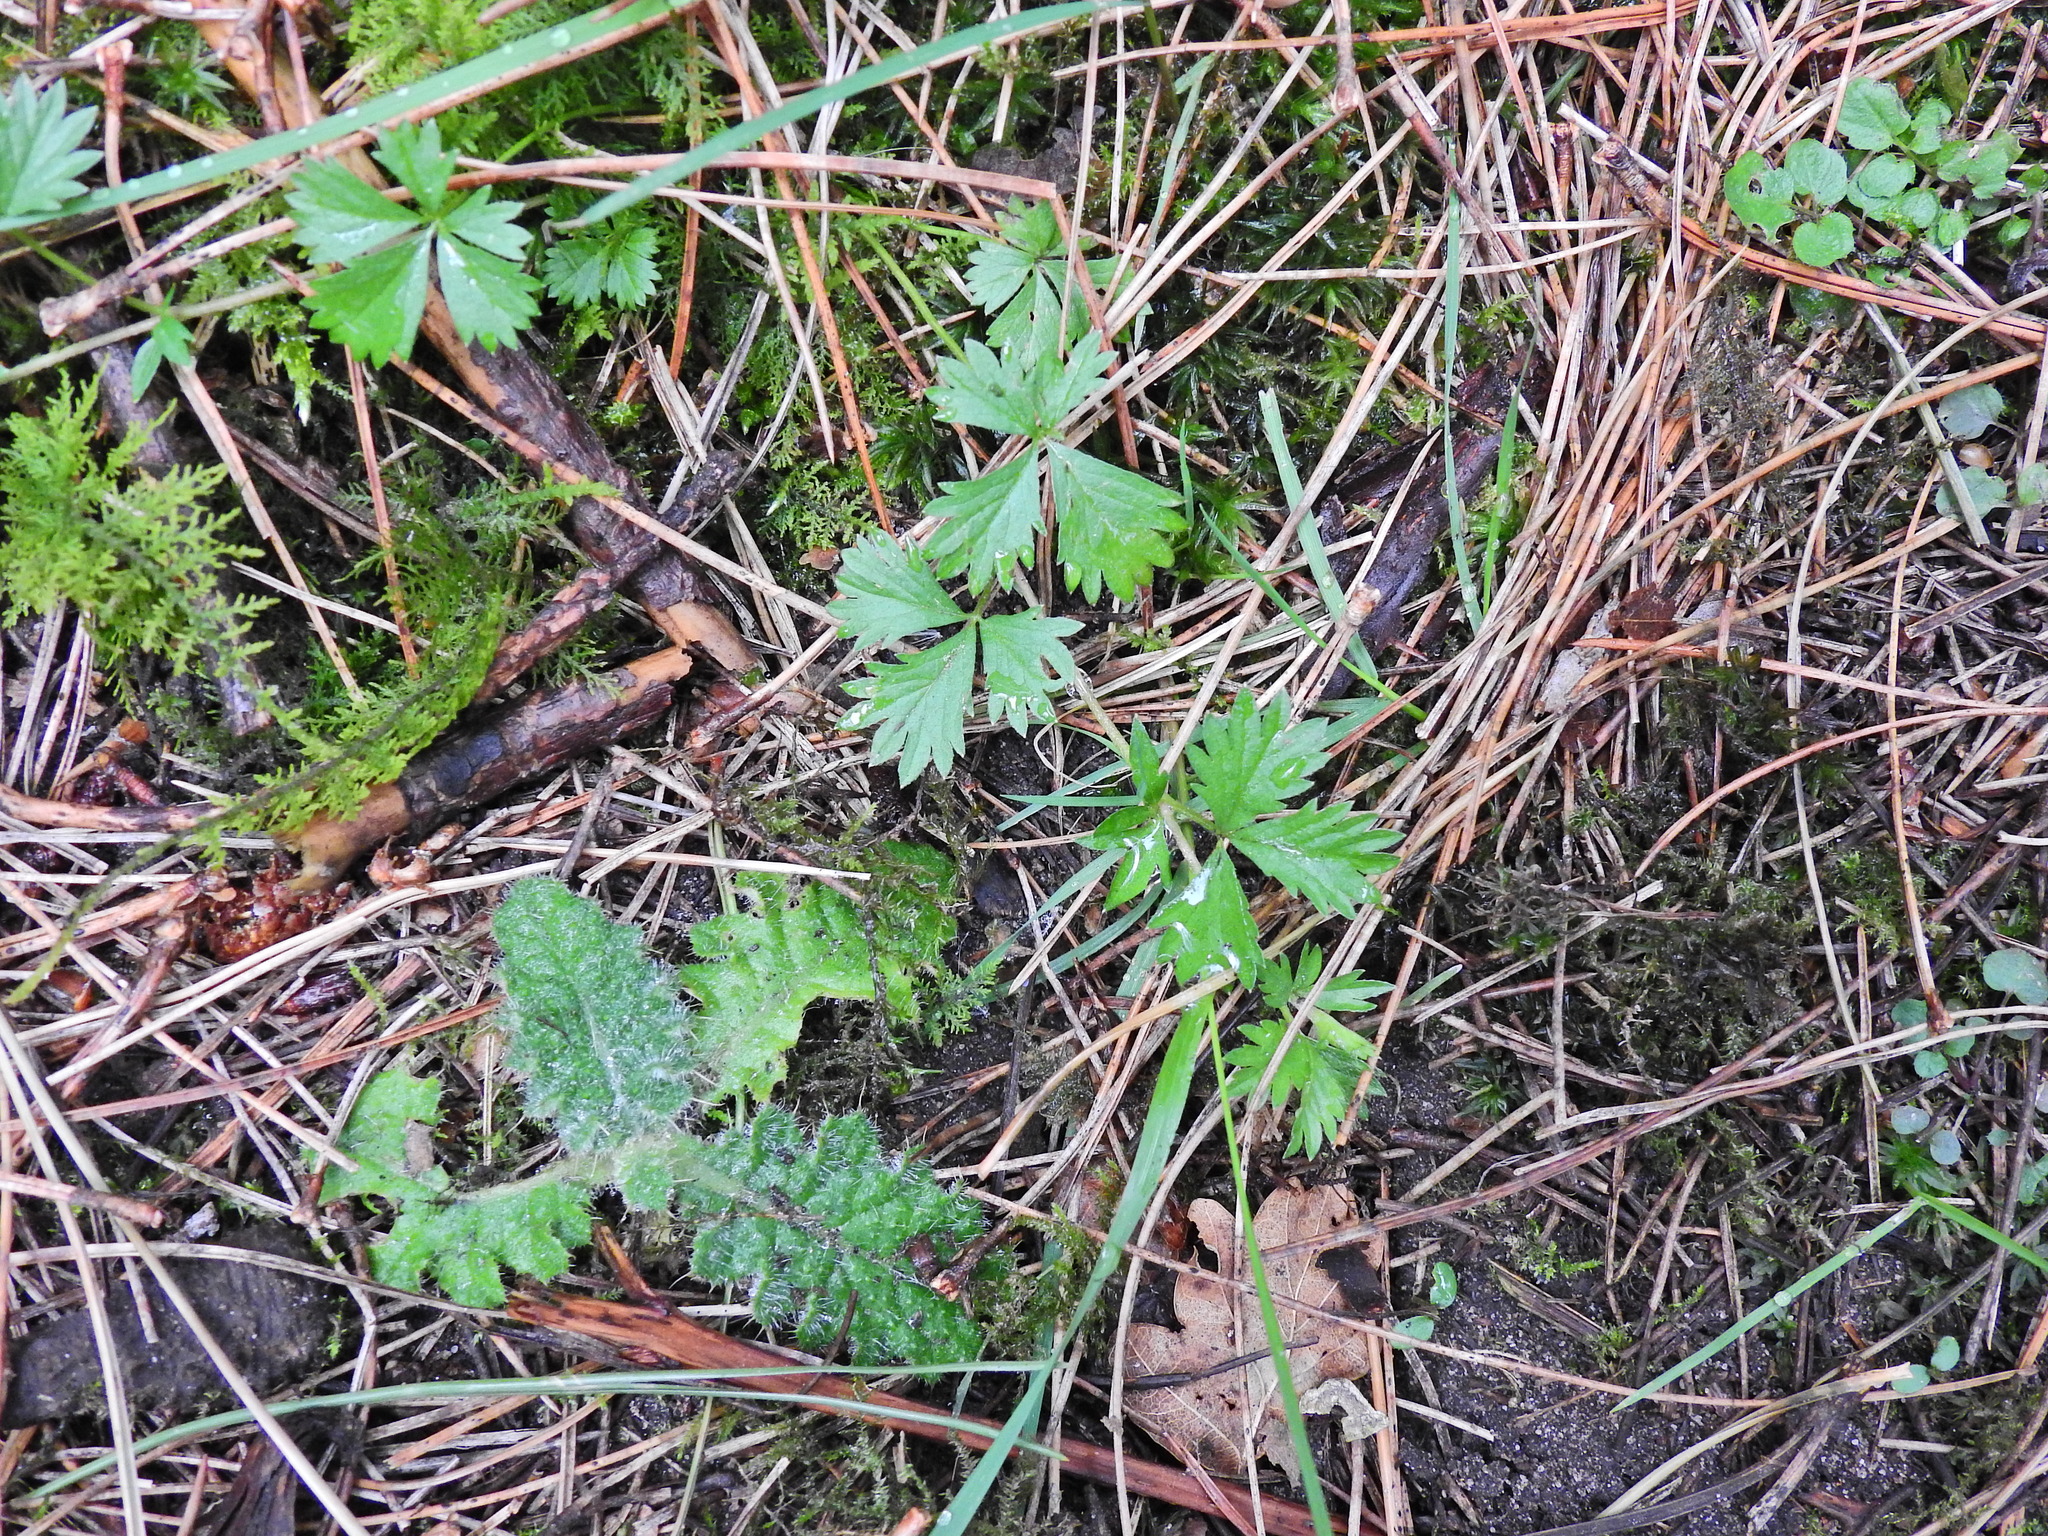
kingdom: Plantae
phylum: Tracheophyta
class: Magnoliopsida
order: Rosales
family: Rosaceae
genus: Potentilla
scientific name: Potentilla erecta
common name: Tormentil
